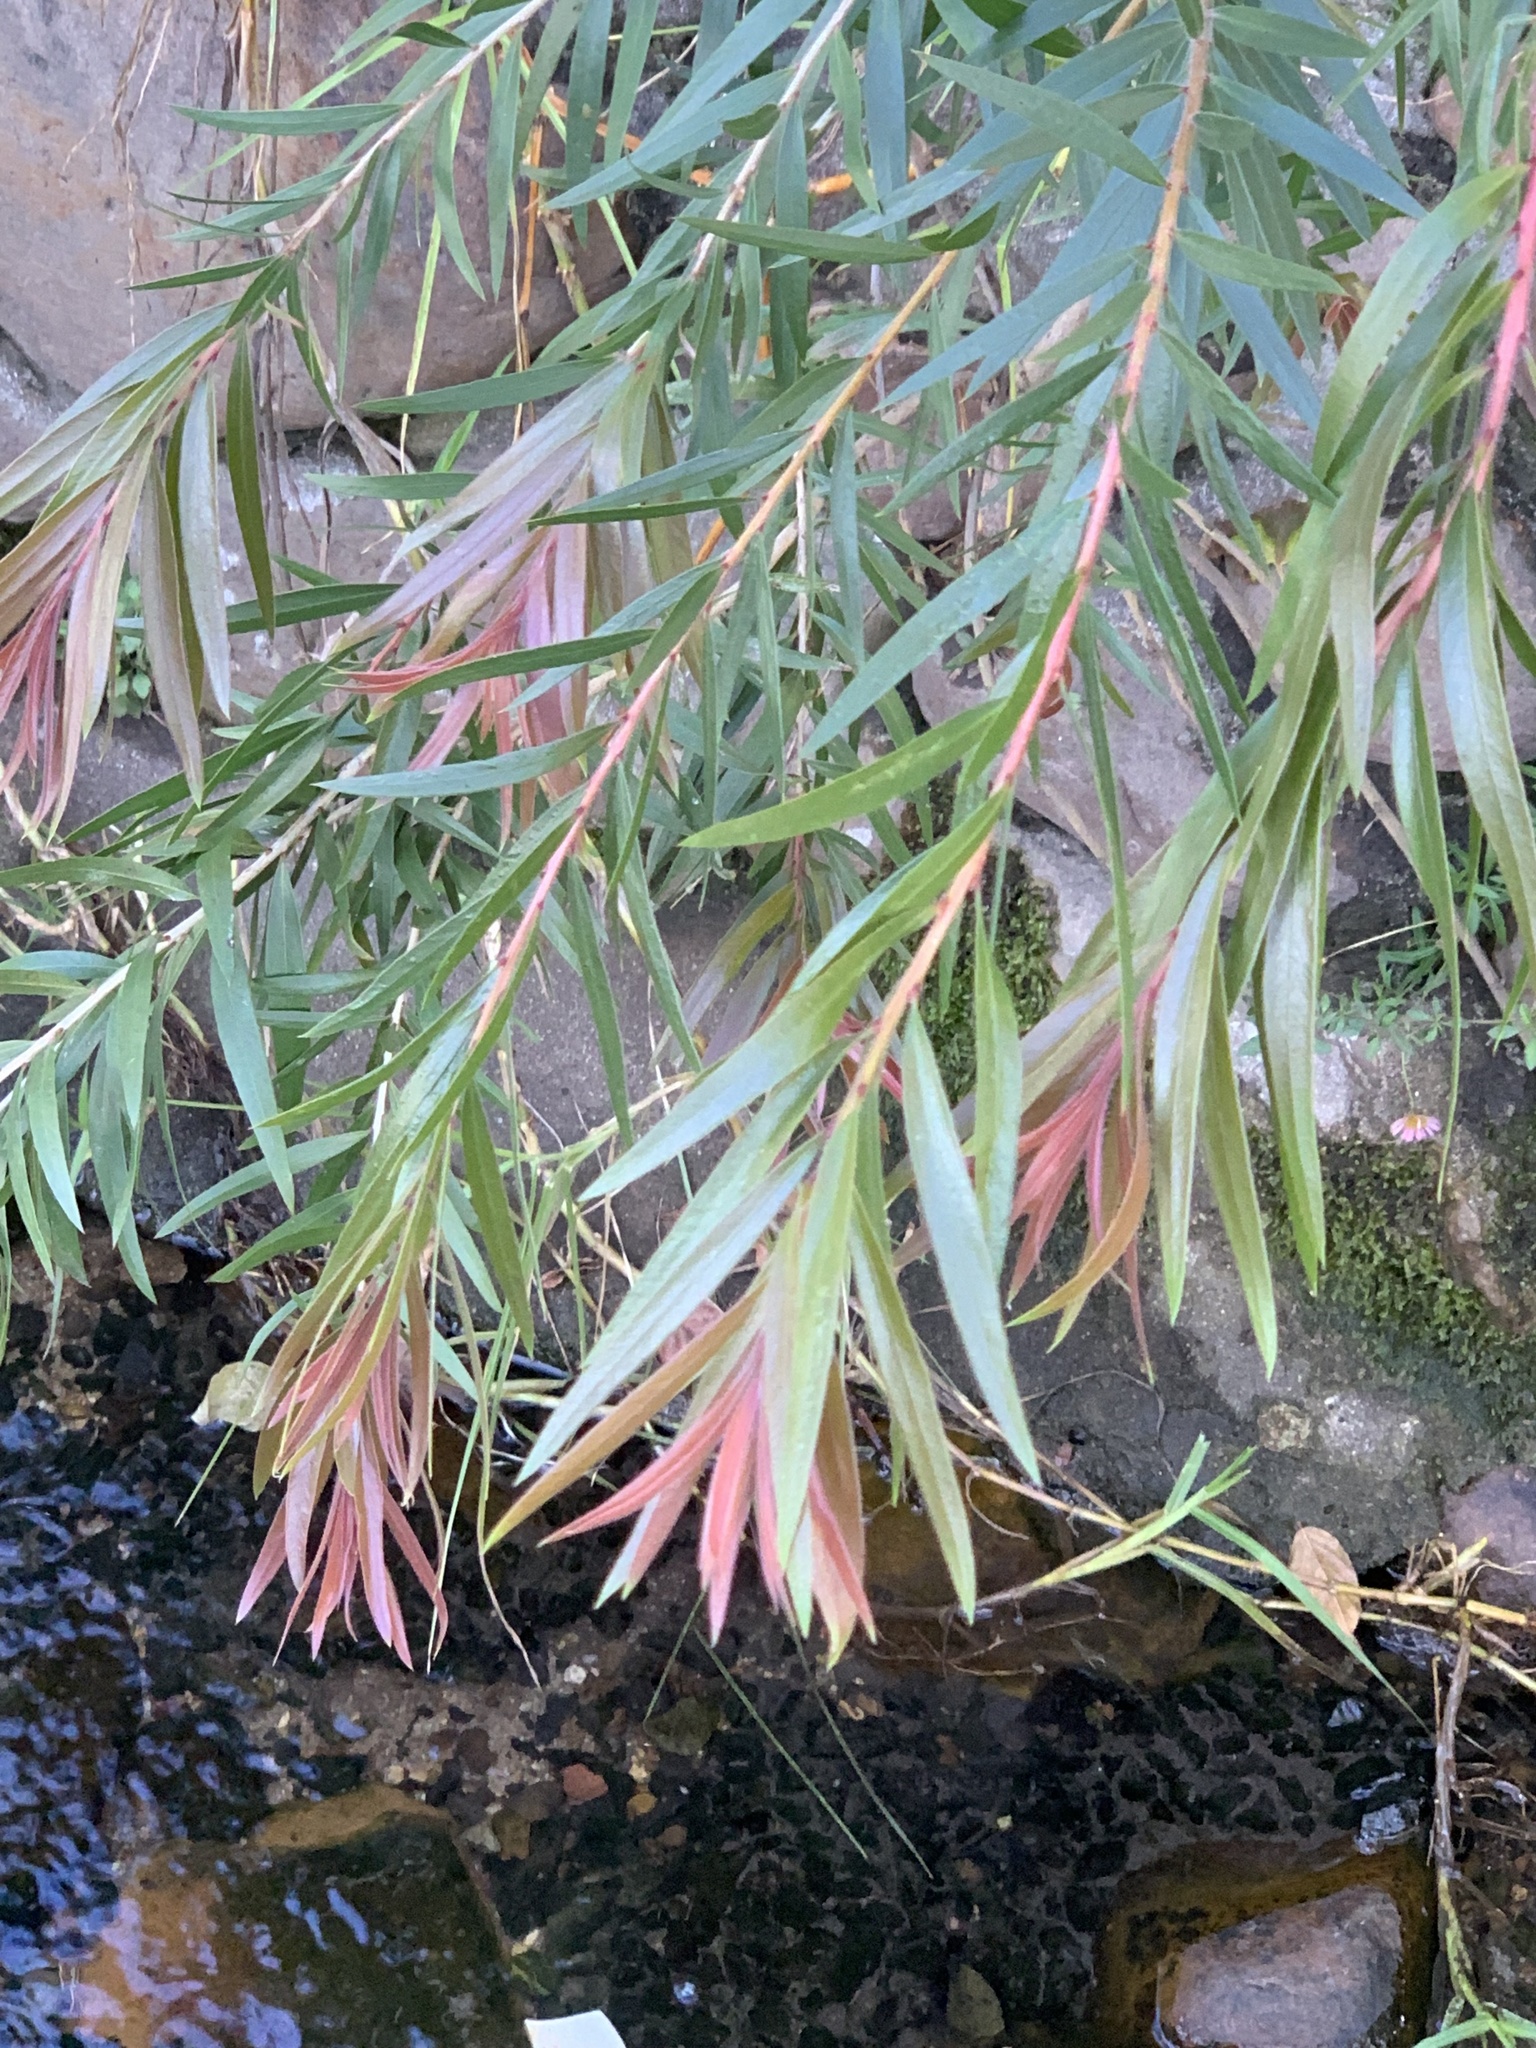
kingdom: Plantae
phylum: Tracheophyta
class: Magnoliopsida
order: Myrtales
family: Myrtaceae
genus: Callistemon
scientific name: Callistemon viminalis
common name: Drooping bottlebrush
